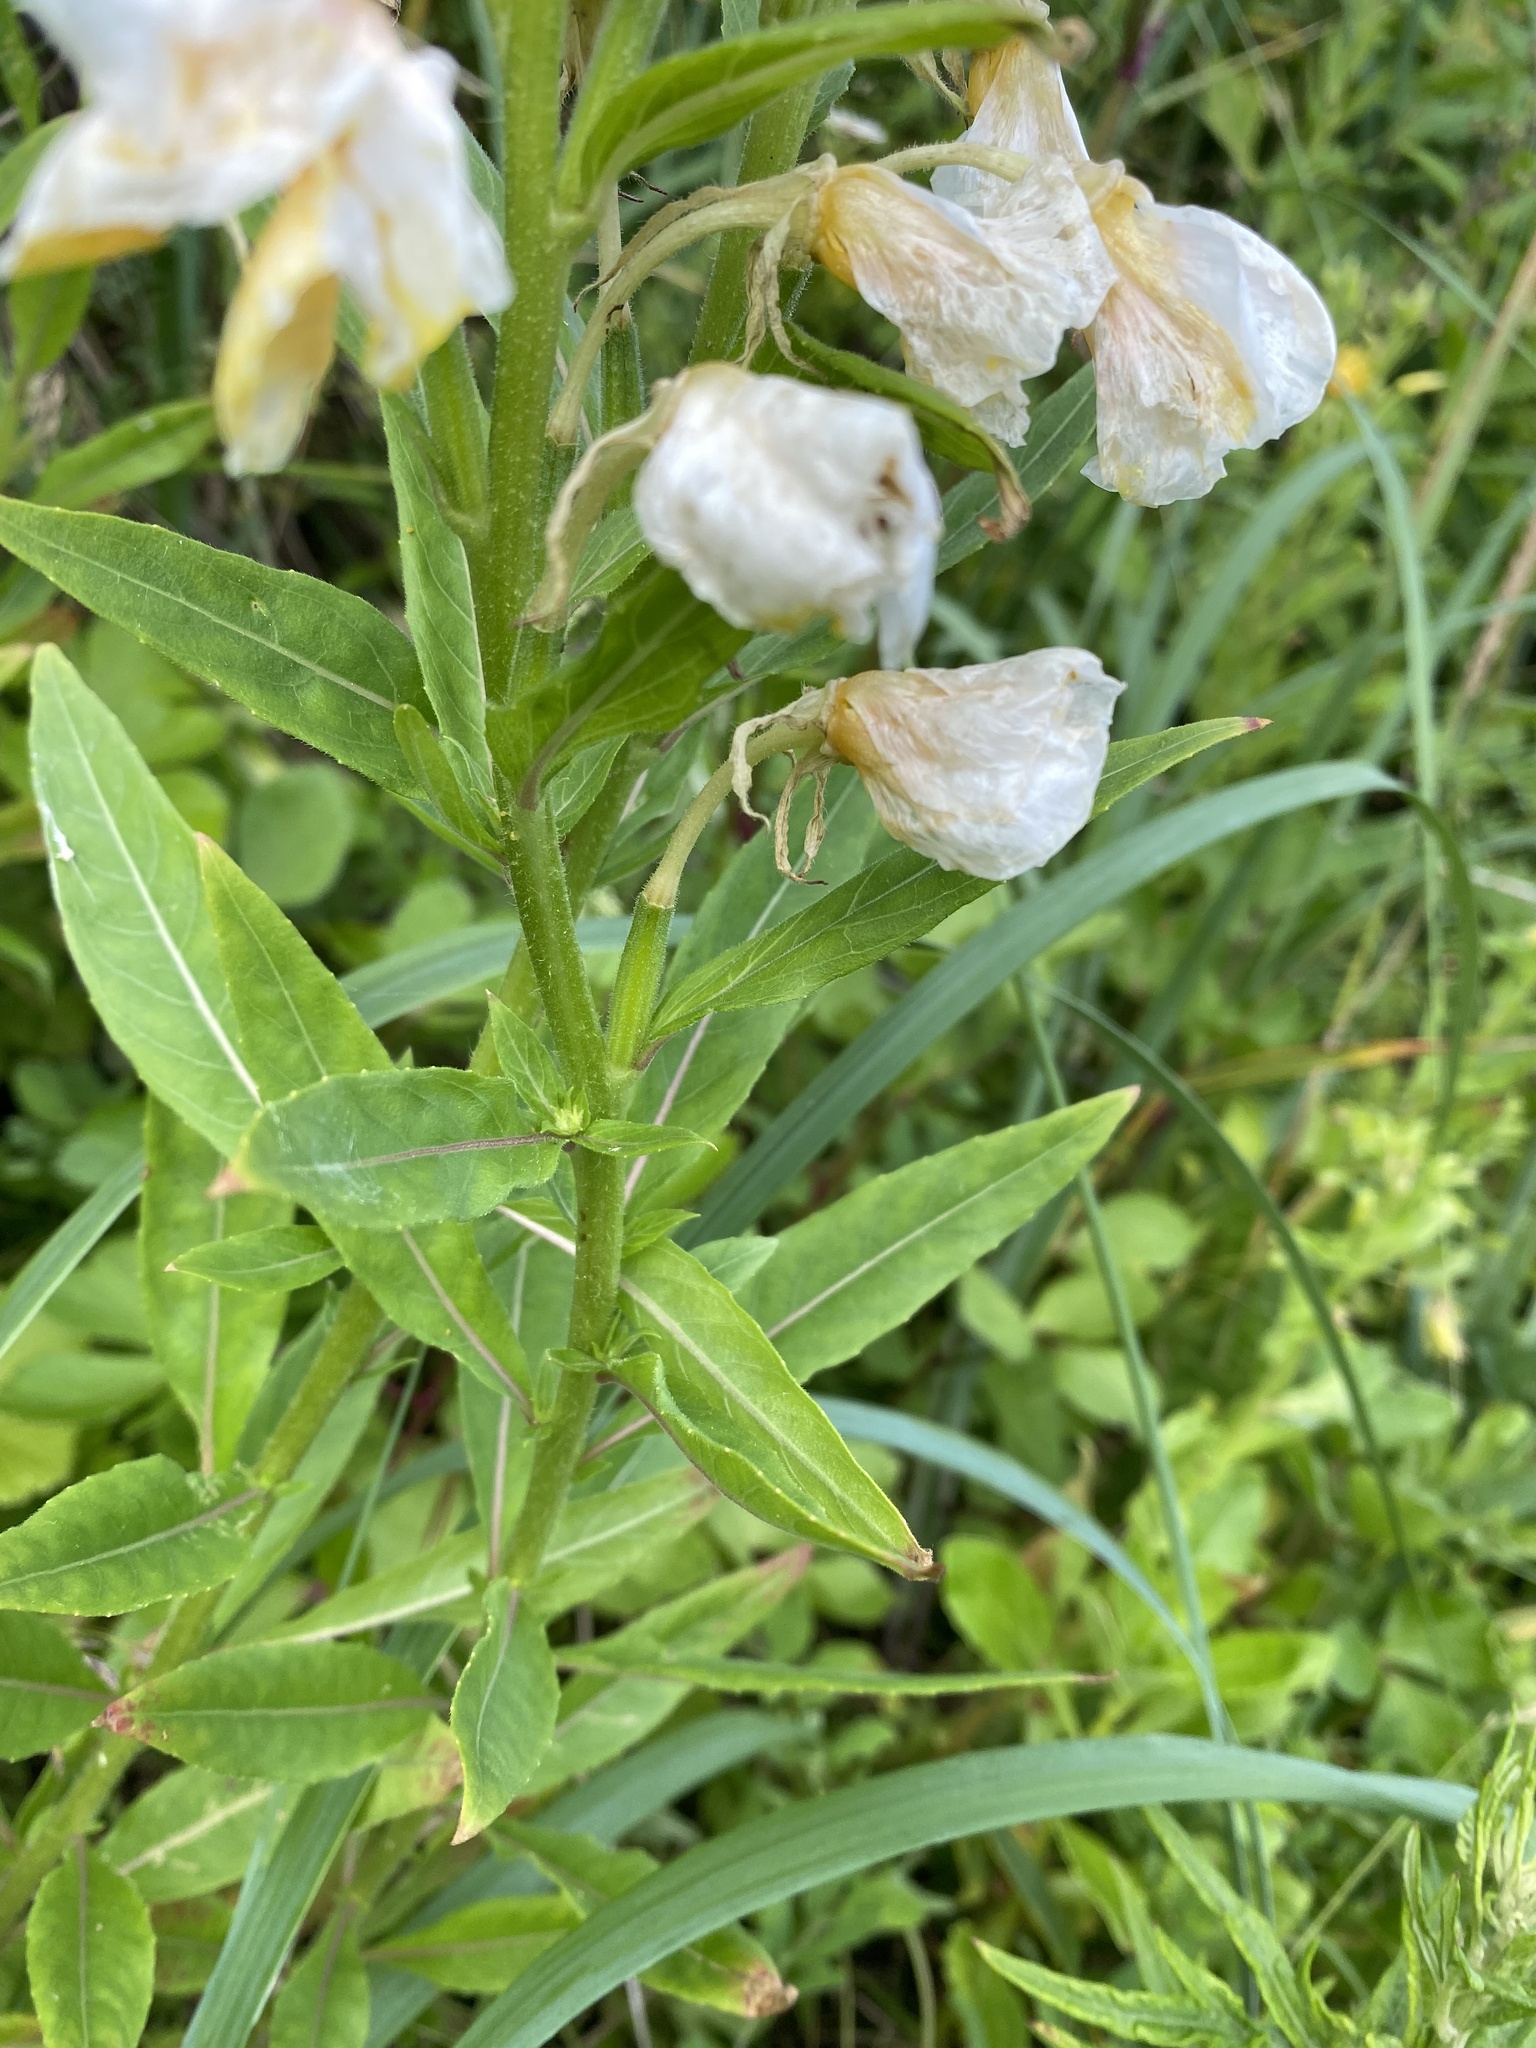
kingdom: Plantae
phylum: Tracheophyta
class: Magnoliopsida
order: Myrtales
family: Onagraceae
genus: Oenothera
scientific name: Oenothera biennis
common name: Common evening-primrose
